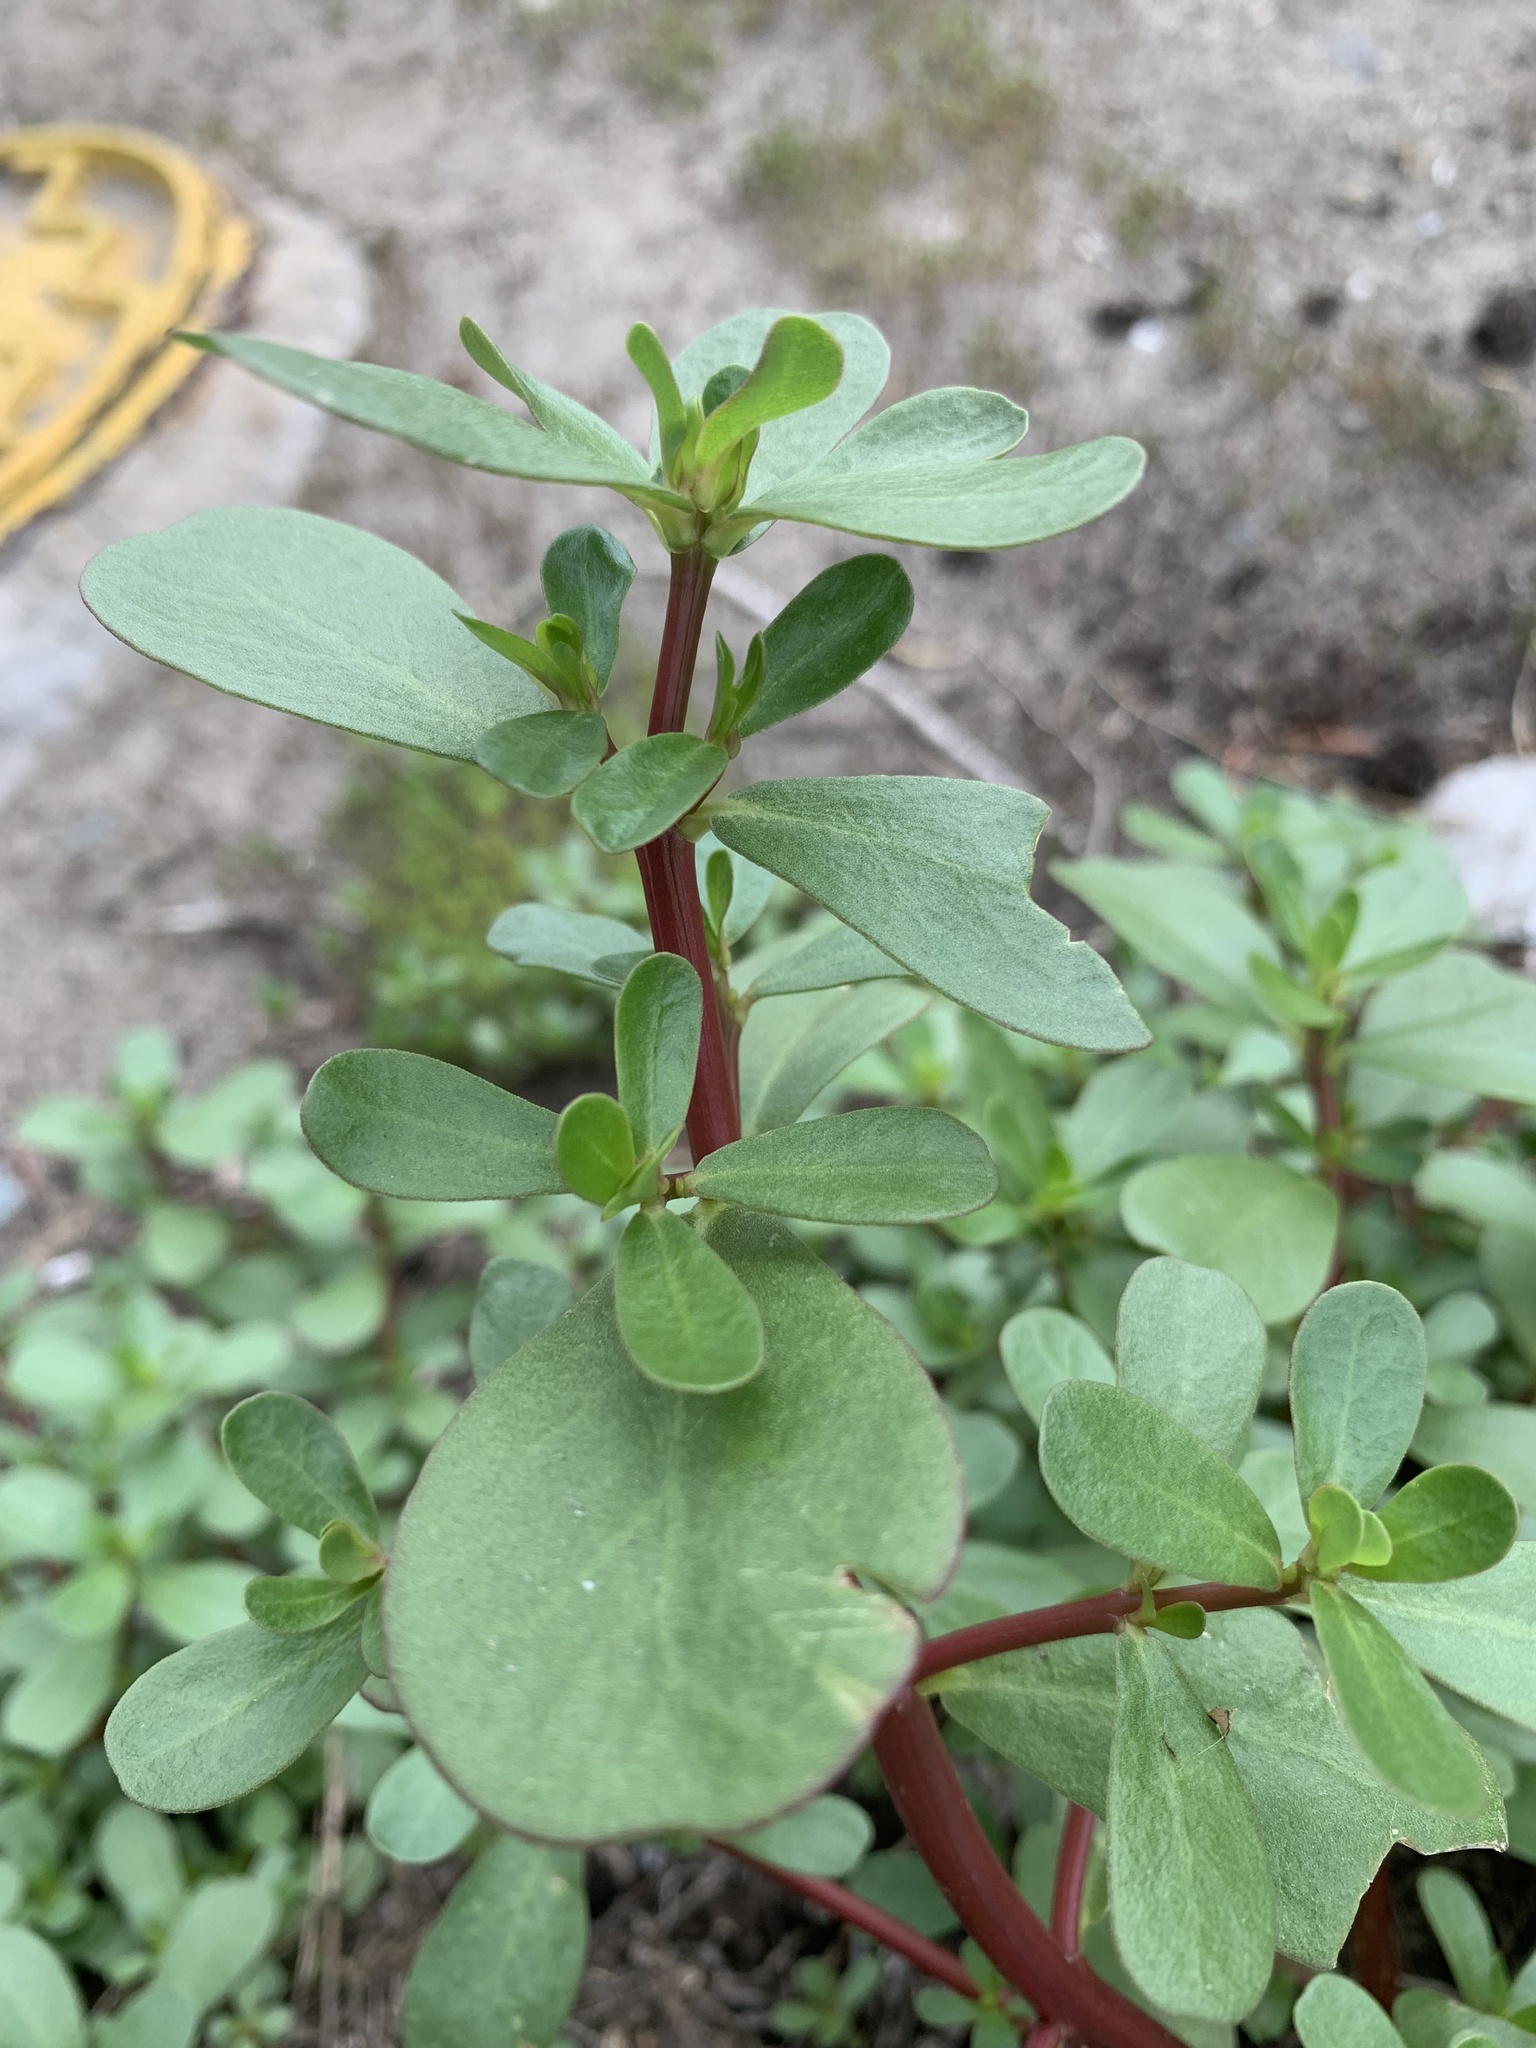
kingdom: Plantae
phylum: Tracheophyta
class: Magnoliopsida
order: Caryophyllales
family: Portulacaceae
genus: Portulaca
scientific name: Portulaca oleracea
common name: Common purslane
